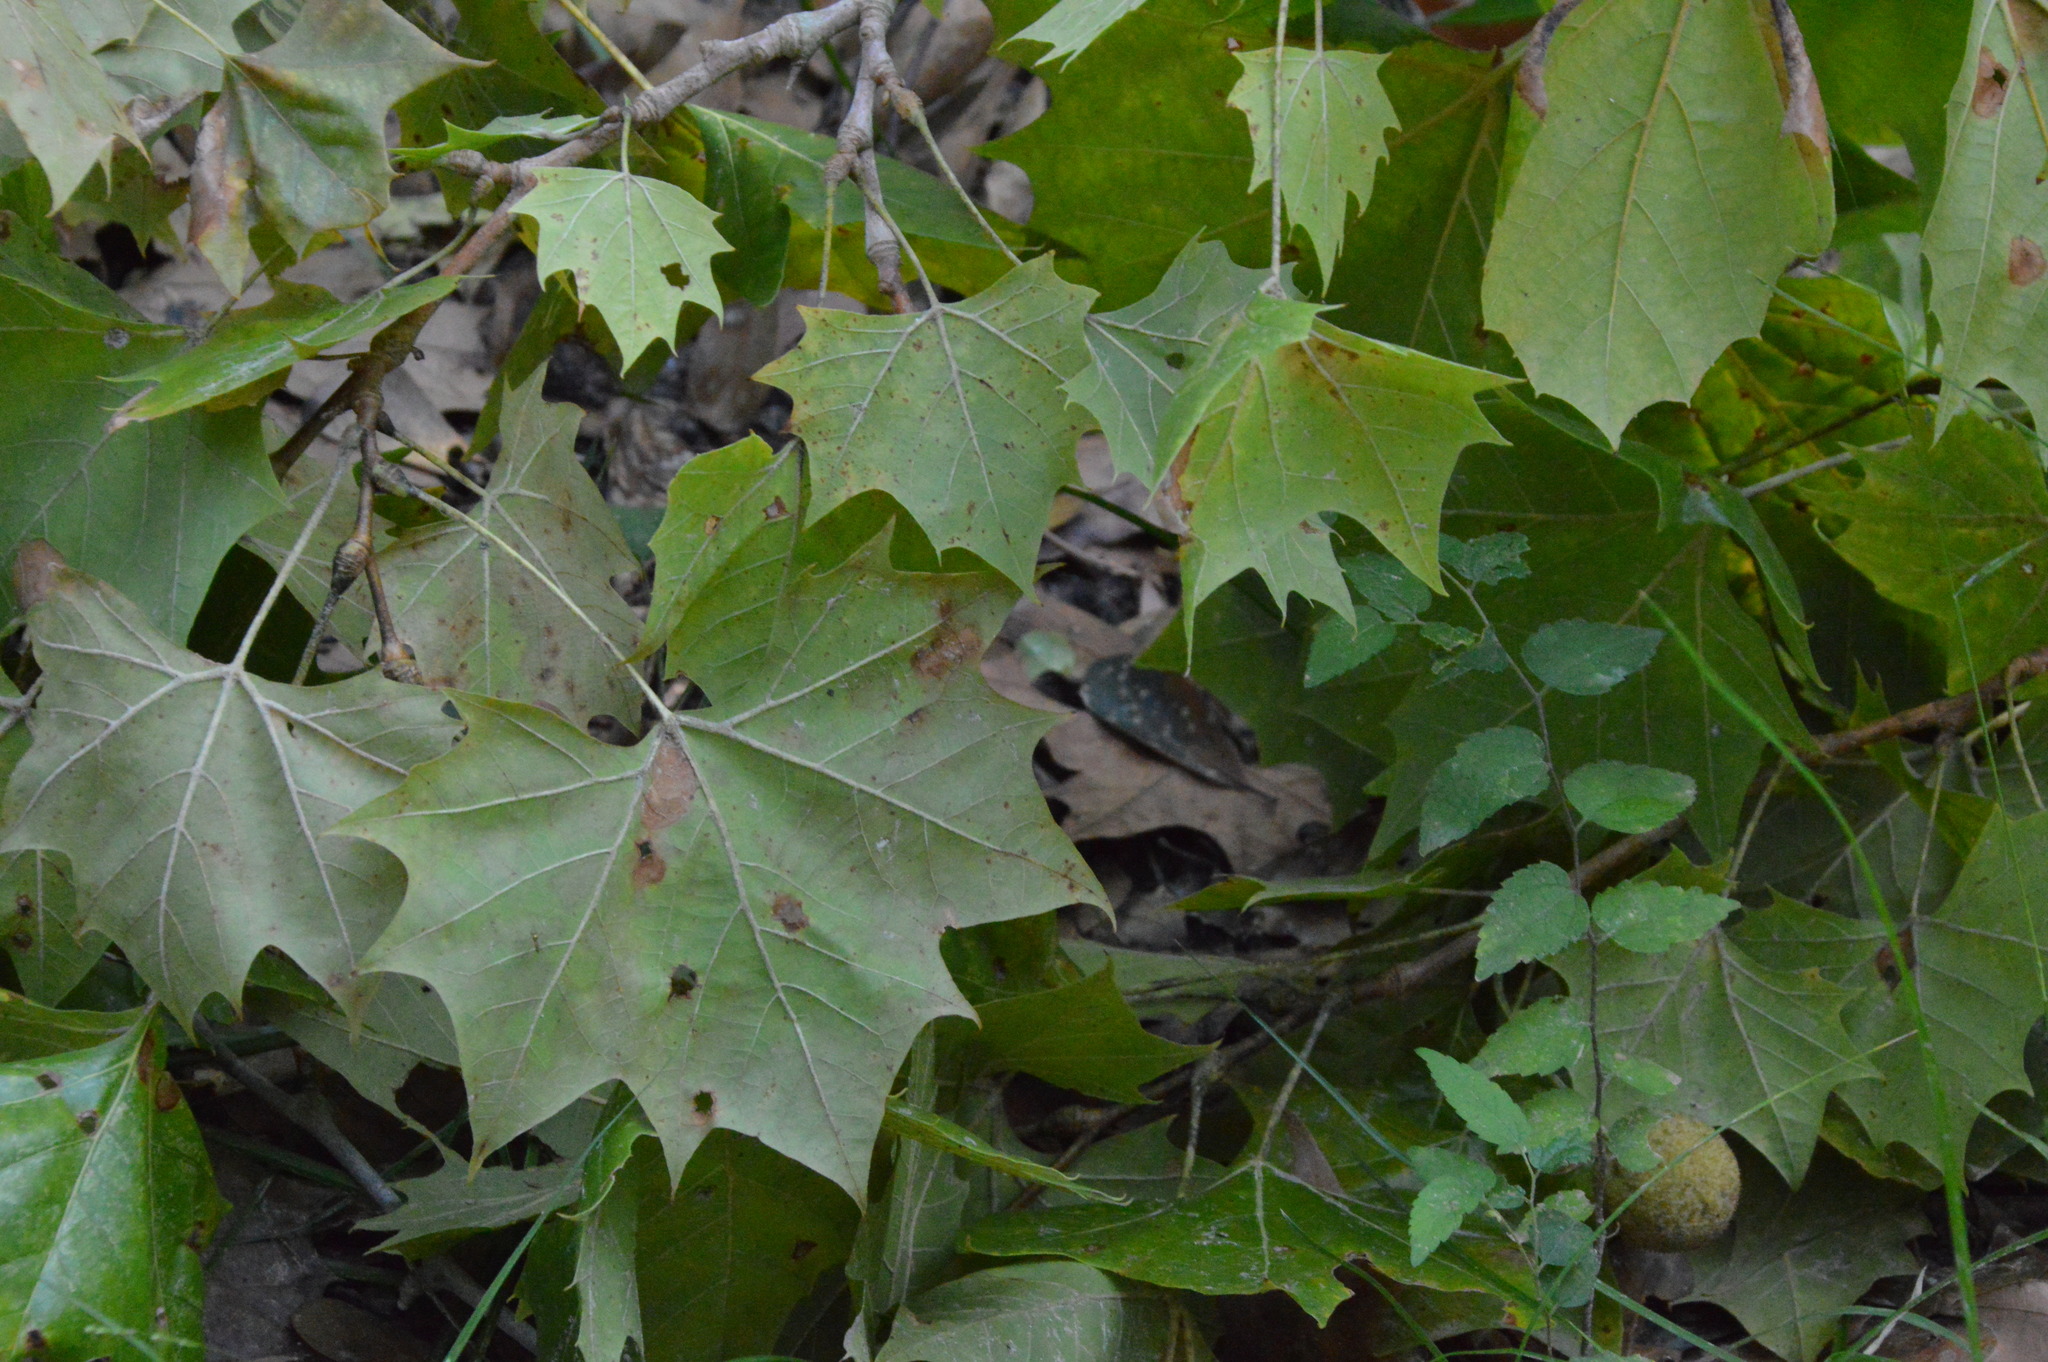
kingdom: Plantae
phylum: Tracheophyta
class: Magnoliopsida
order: Proteales
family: Platanaceae
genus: Platanus
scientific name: Platanus occidentalis
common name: American sycamore
